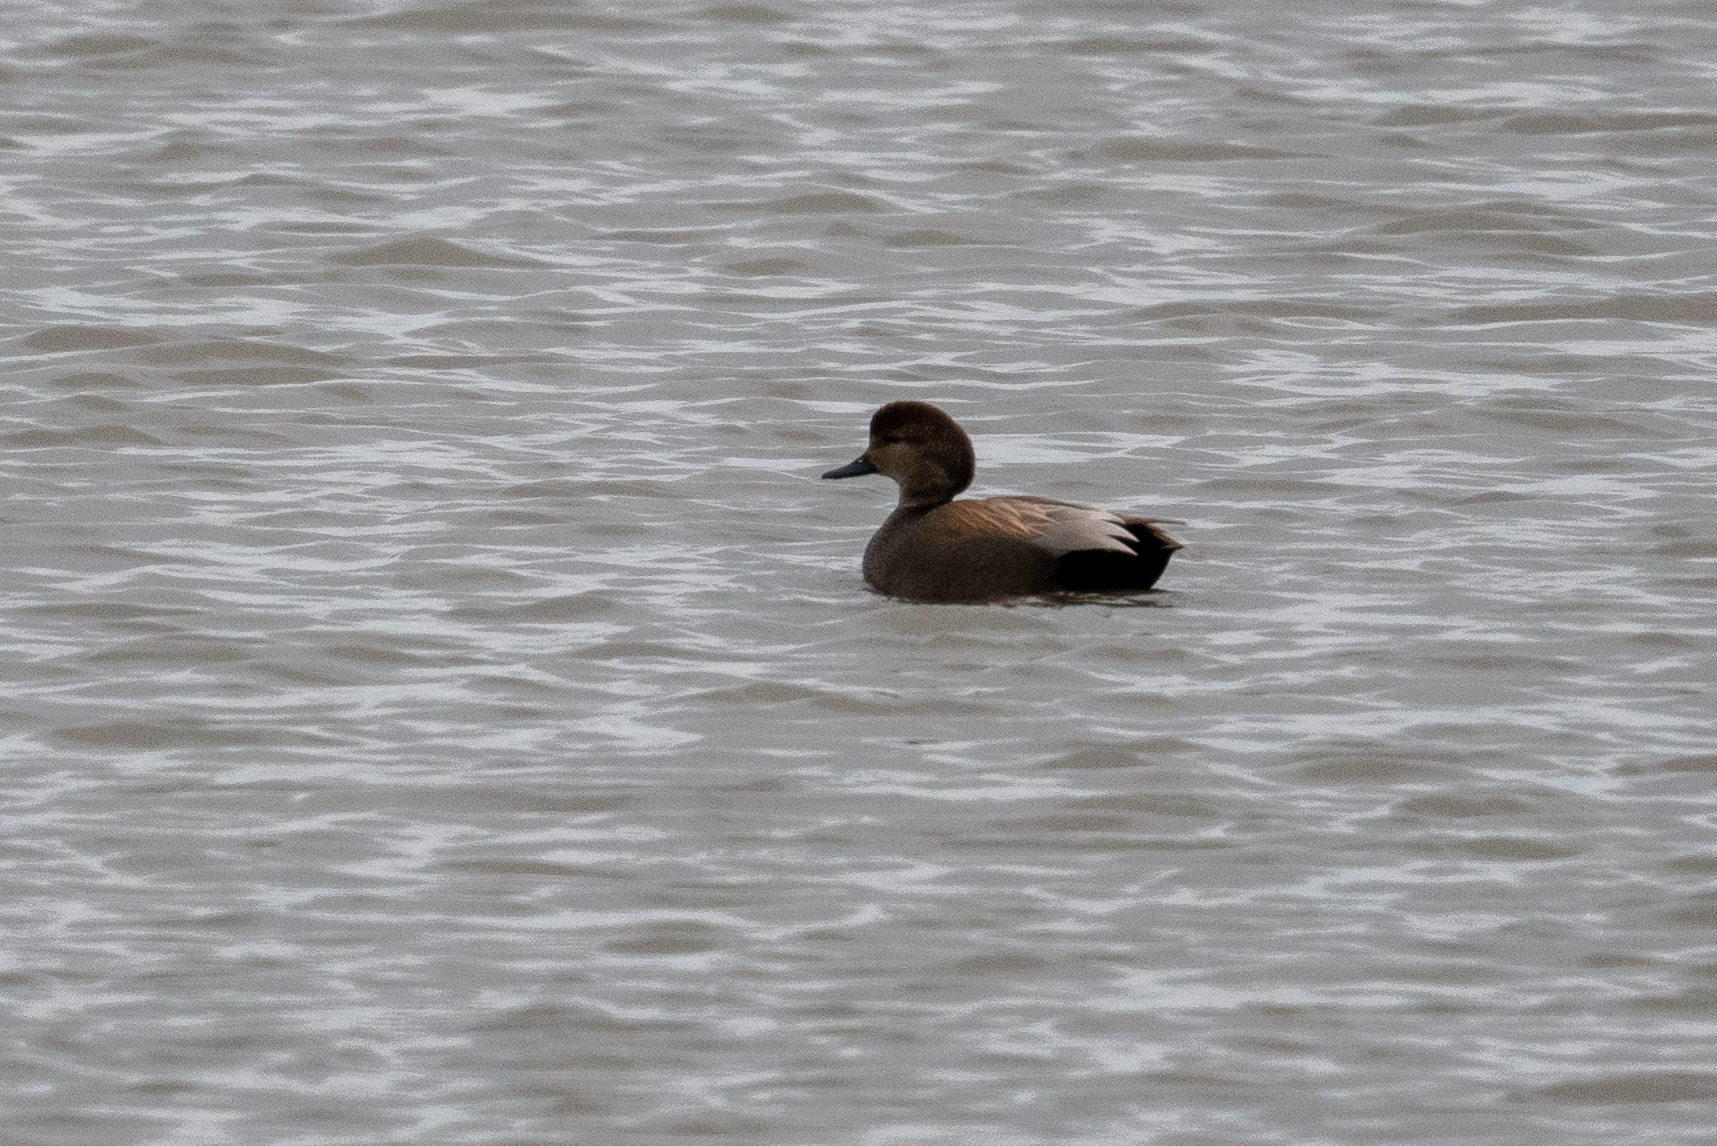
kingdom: Animalia
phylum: Chordata
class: Aves
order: Anseriformes
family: Anatidae
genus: Mareca
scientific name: Mareca strepera
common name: Gadwall
